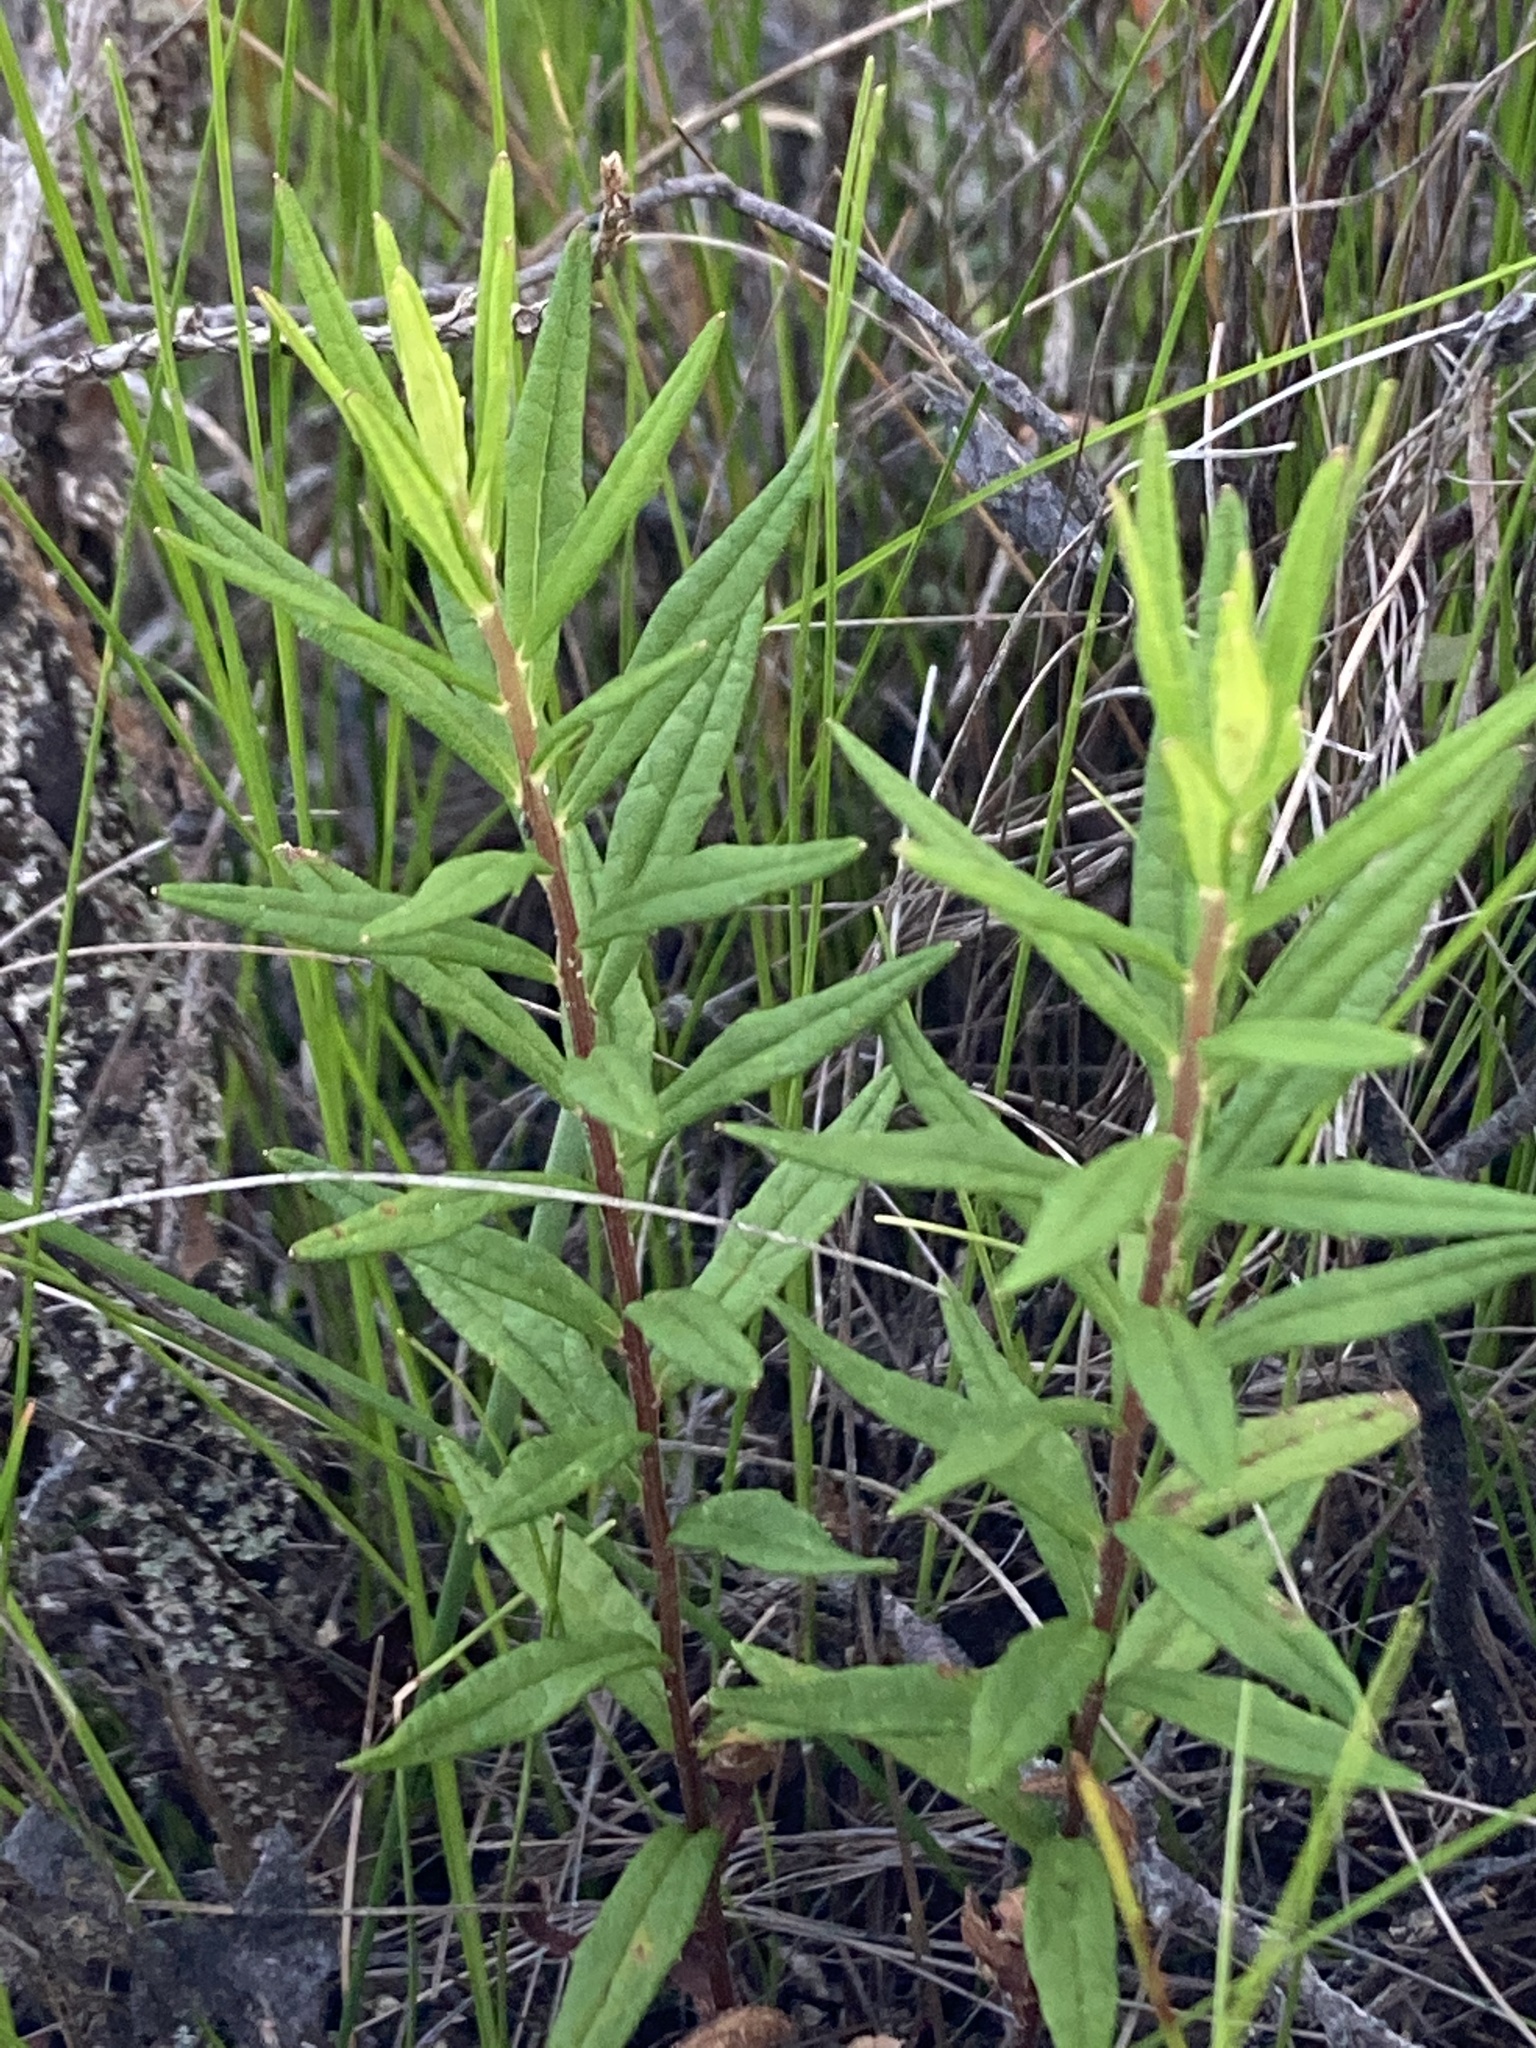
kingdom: Plantae
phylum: Tracheophyta
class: Magnoliopsida
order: Asterales
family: Asteraceae
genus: Oclemena
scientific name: Oclemena nemoralis
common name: Bog aster
